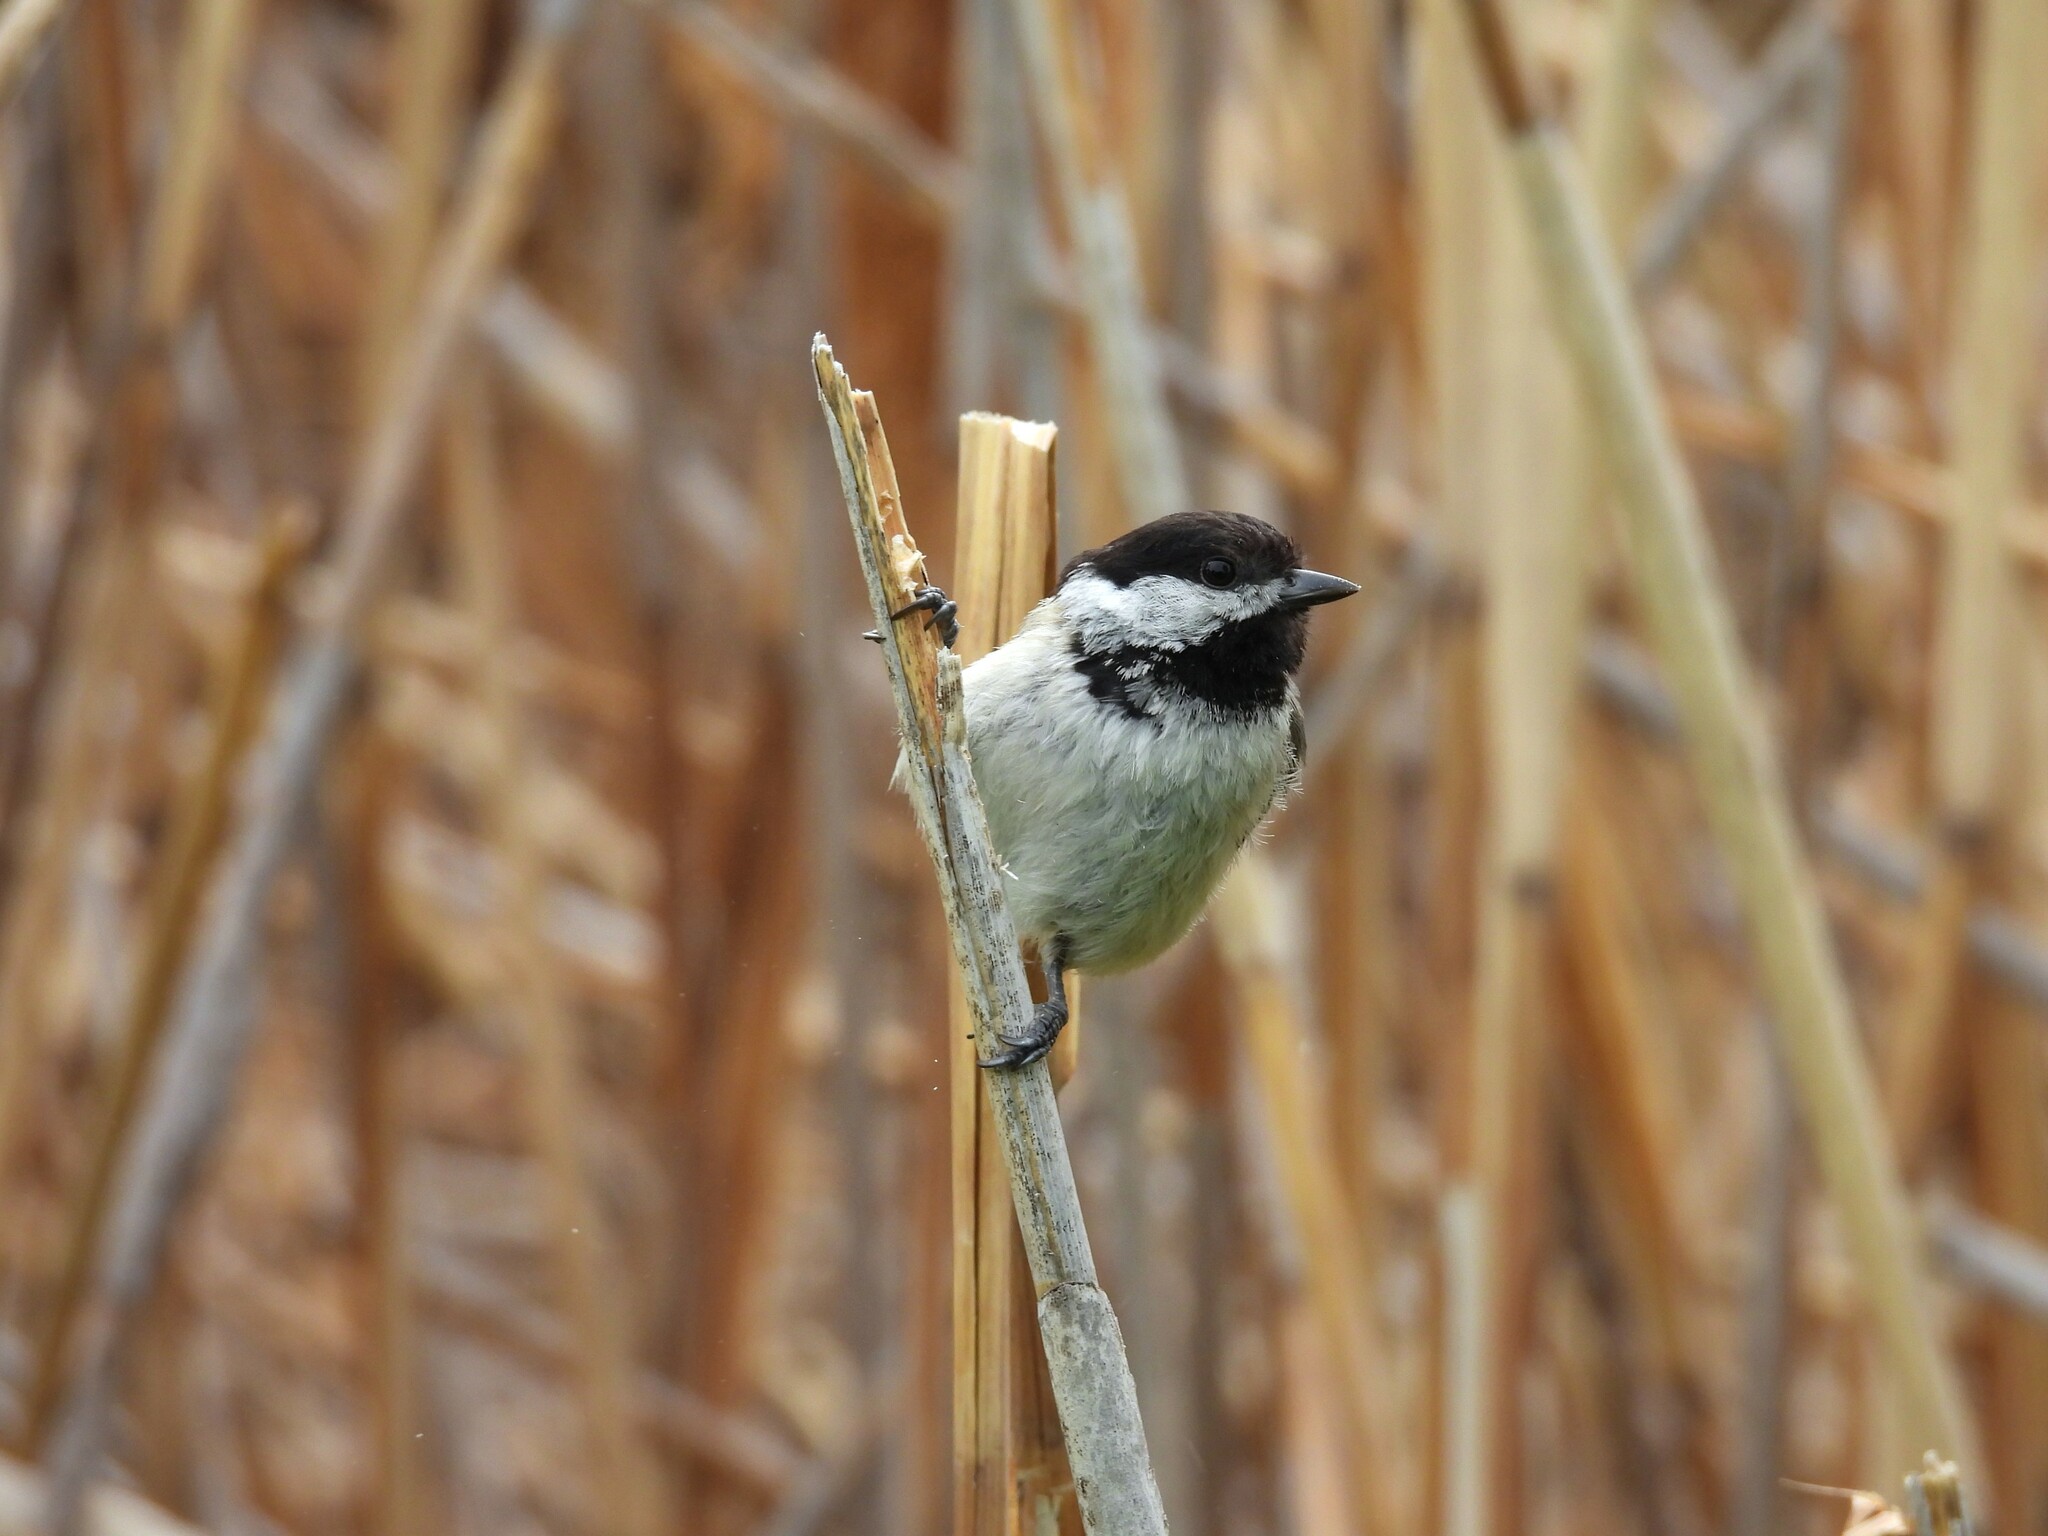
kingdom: Animalia
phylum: Chordata
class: Aves
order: Passeriformes
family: Paridae
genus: Poecile
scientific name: Poecile atricapillus
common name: Black-capped chickadee
